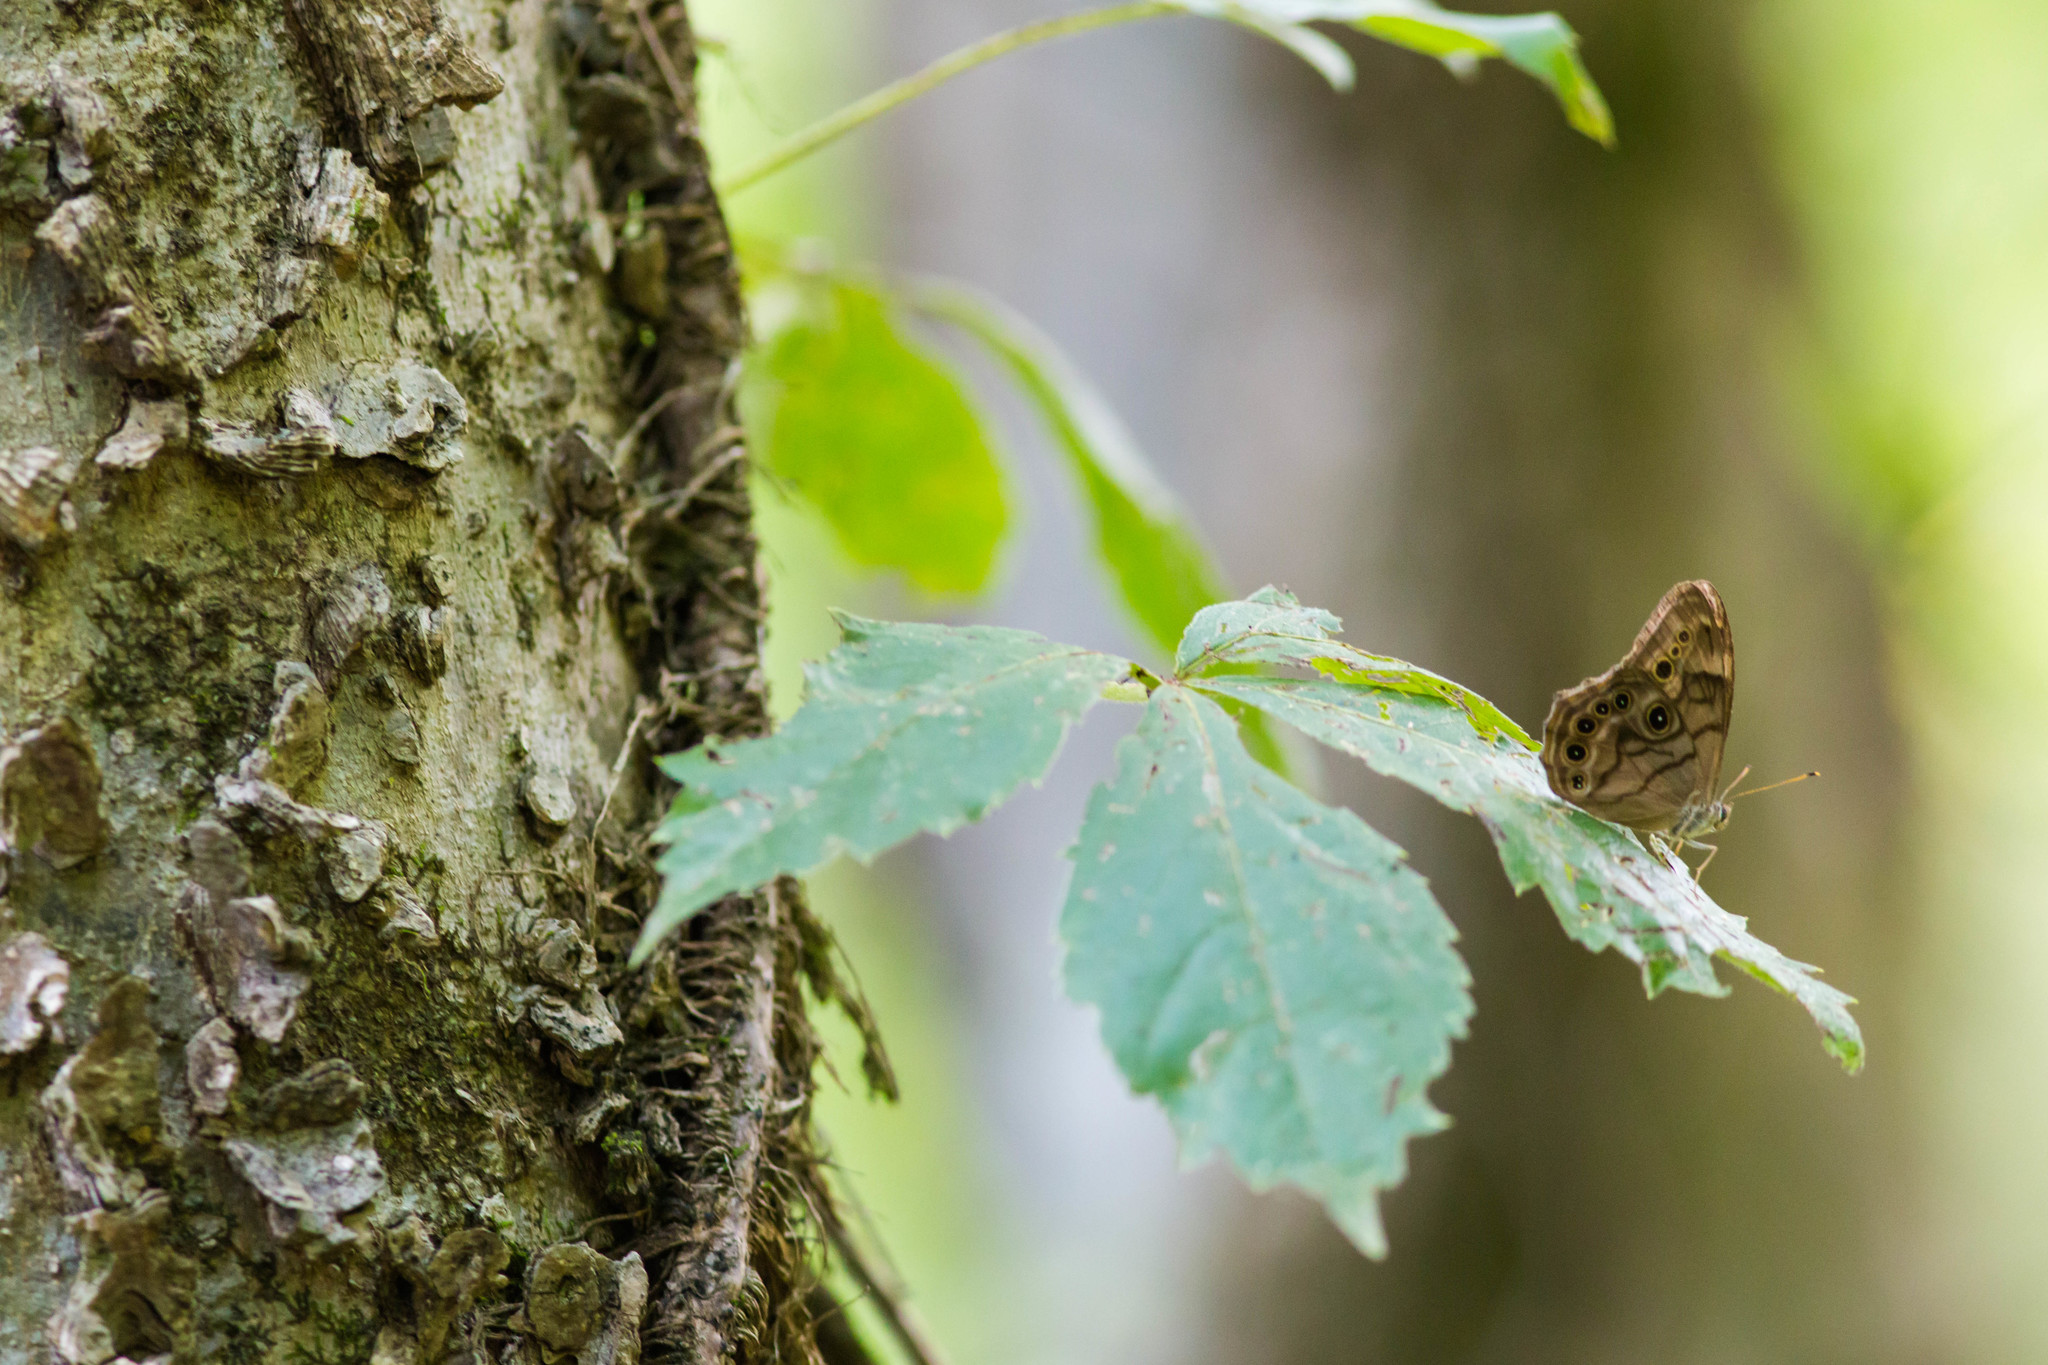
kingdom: Animalia
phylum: Arthropoda
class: Insecta
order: Lepidoptera
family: Nymphalidae
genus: Lethe
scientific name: Lethe anthedon
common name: Northern pearly-eye
